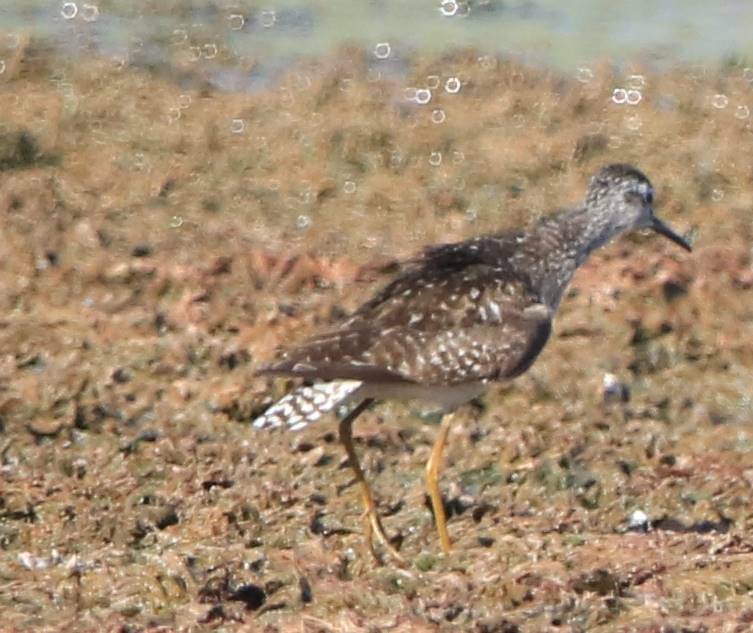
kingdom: Animalia
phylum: Chordata
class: Aves
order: Charadriiformes
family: Scolopacidae
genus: Tringa
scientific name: Tringa glareola
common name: Wood sandpiper
